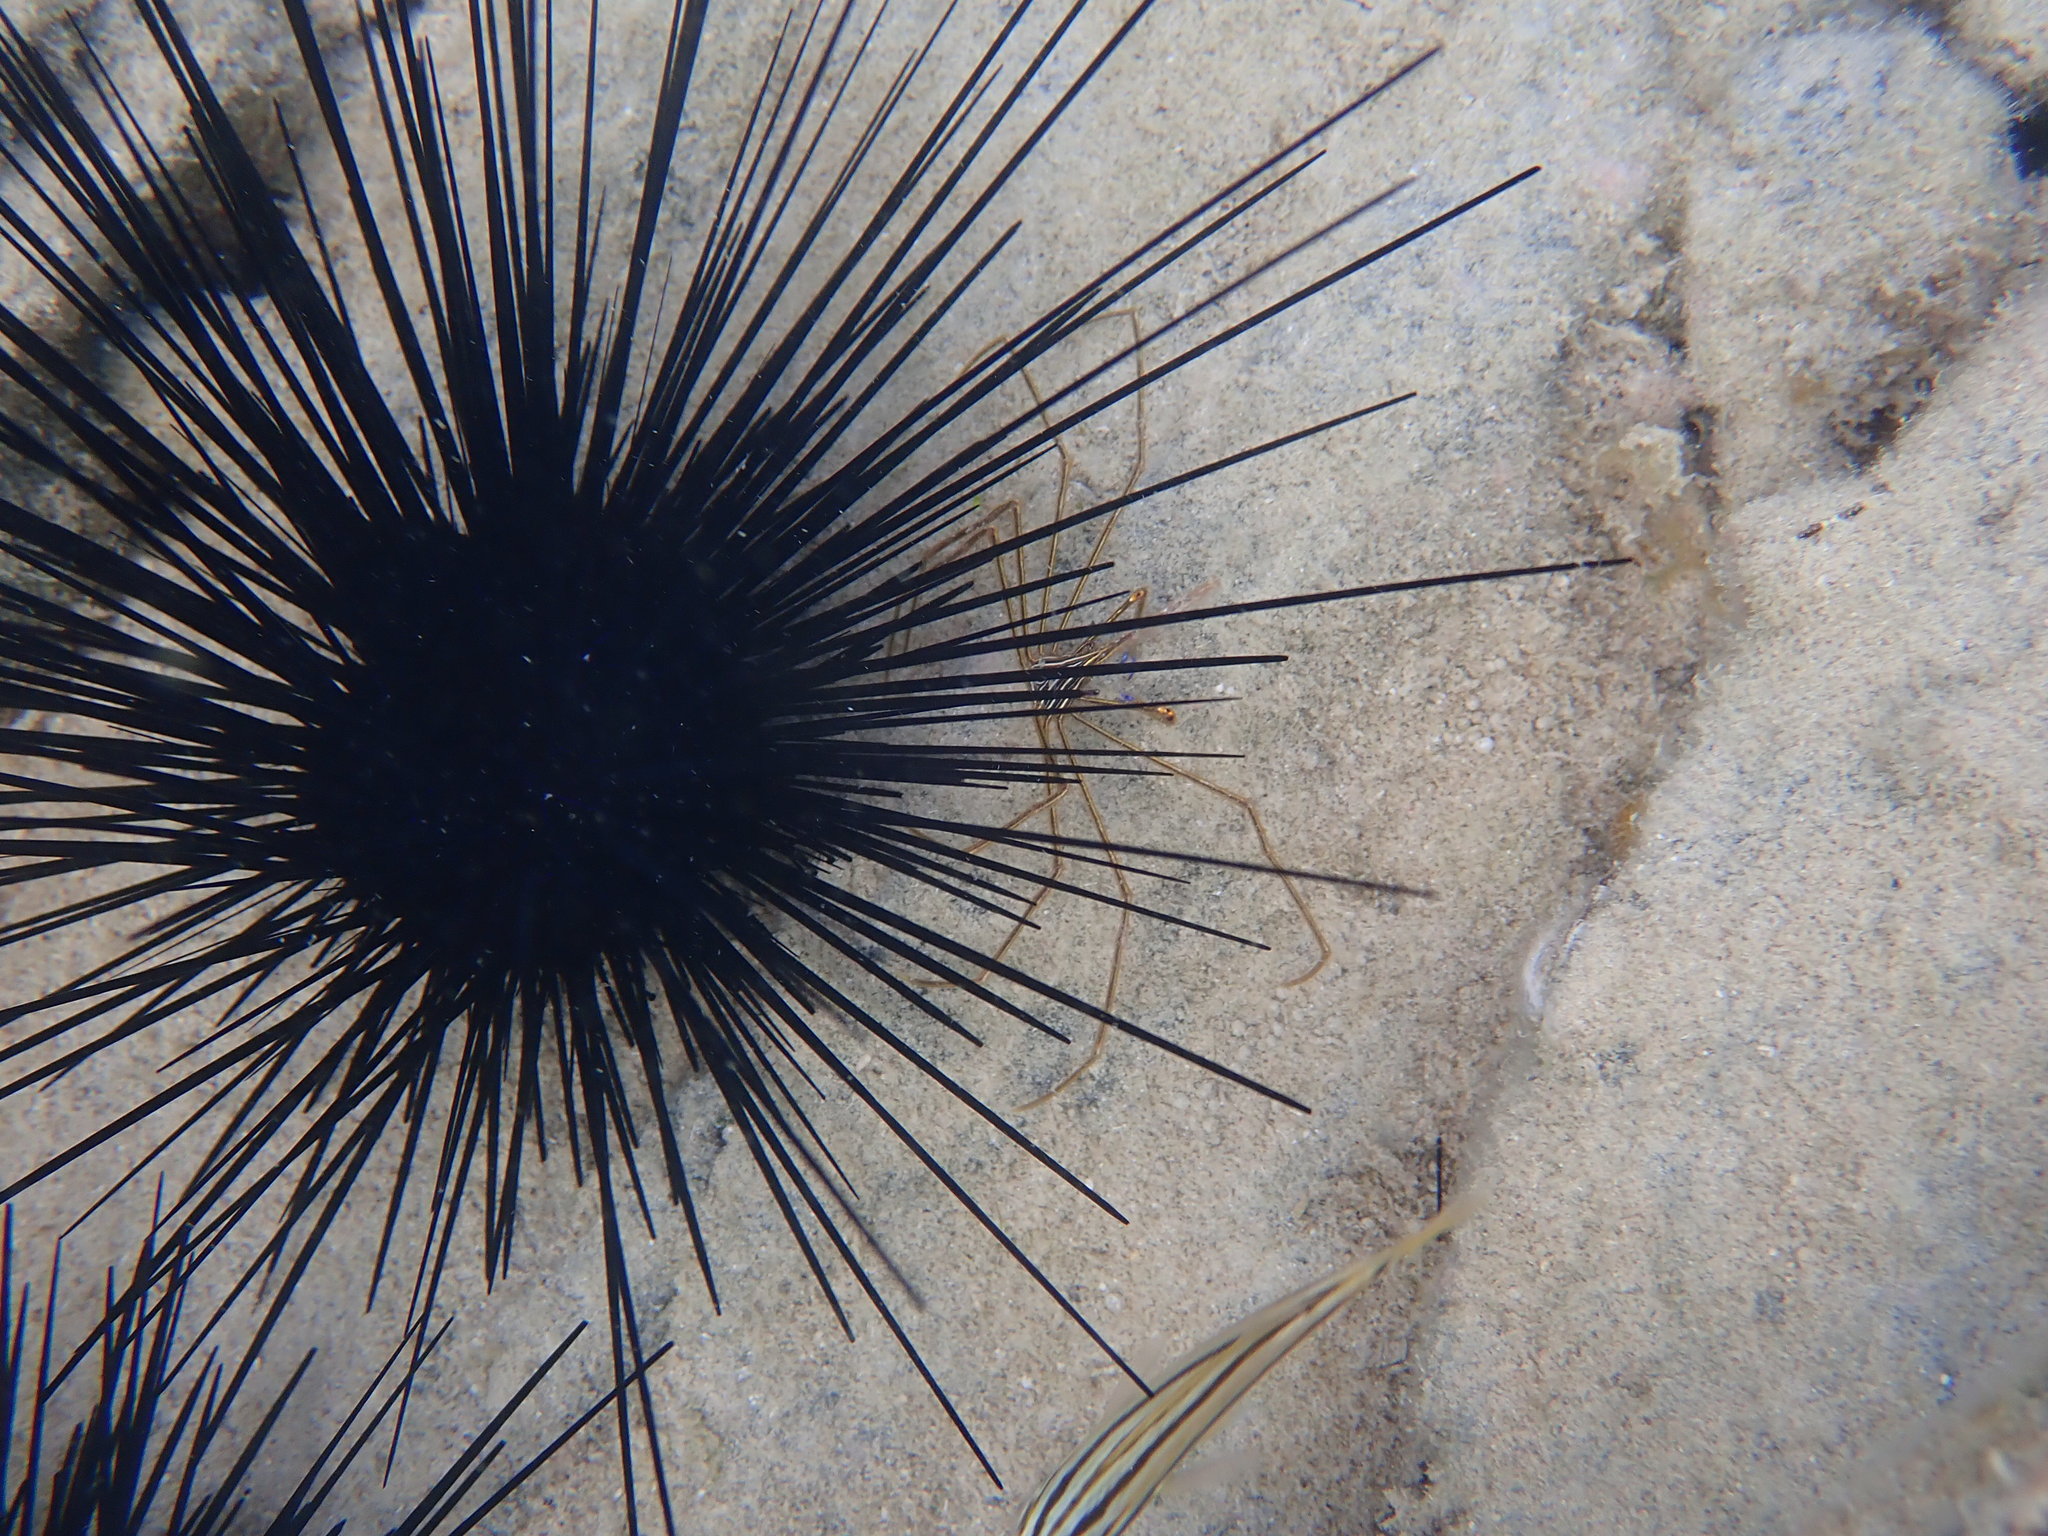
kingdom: Animalia
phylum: Arthropoda
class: Malacostraca
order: Decapoda
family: Inachoididae
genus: Stenorhynchus
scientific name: Stenorhynchus seticornis
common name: Arrow crab
